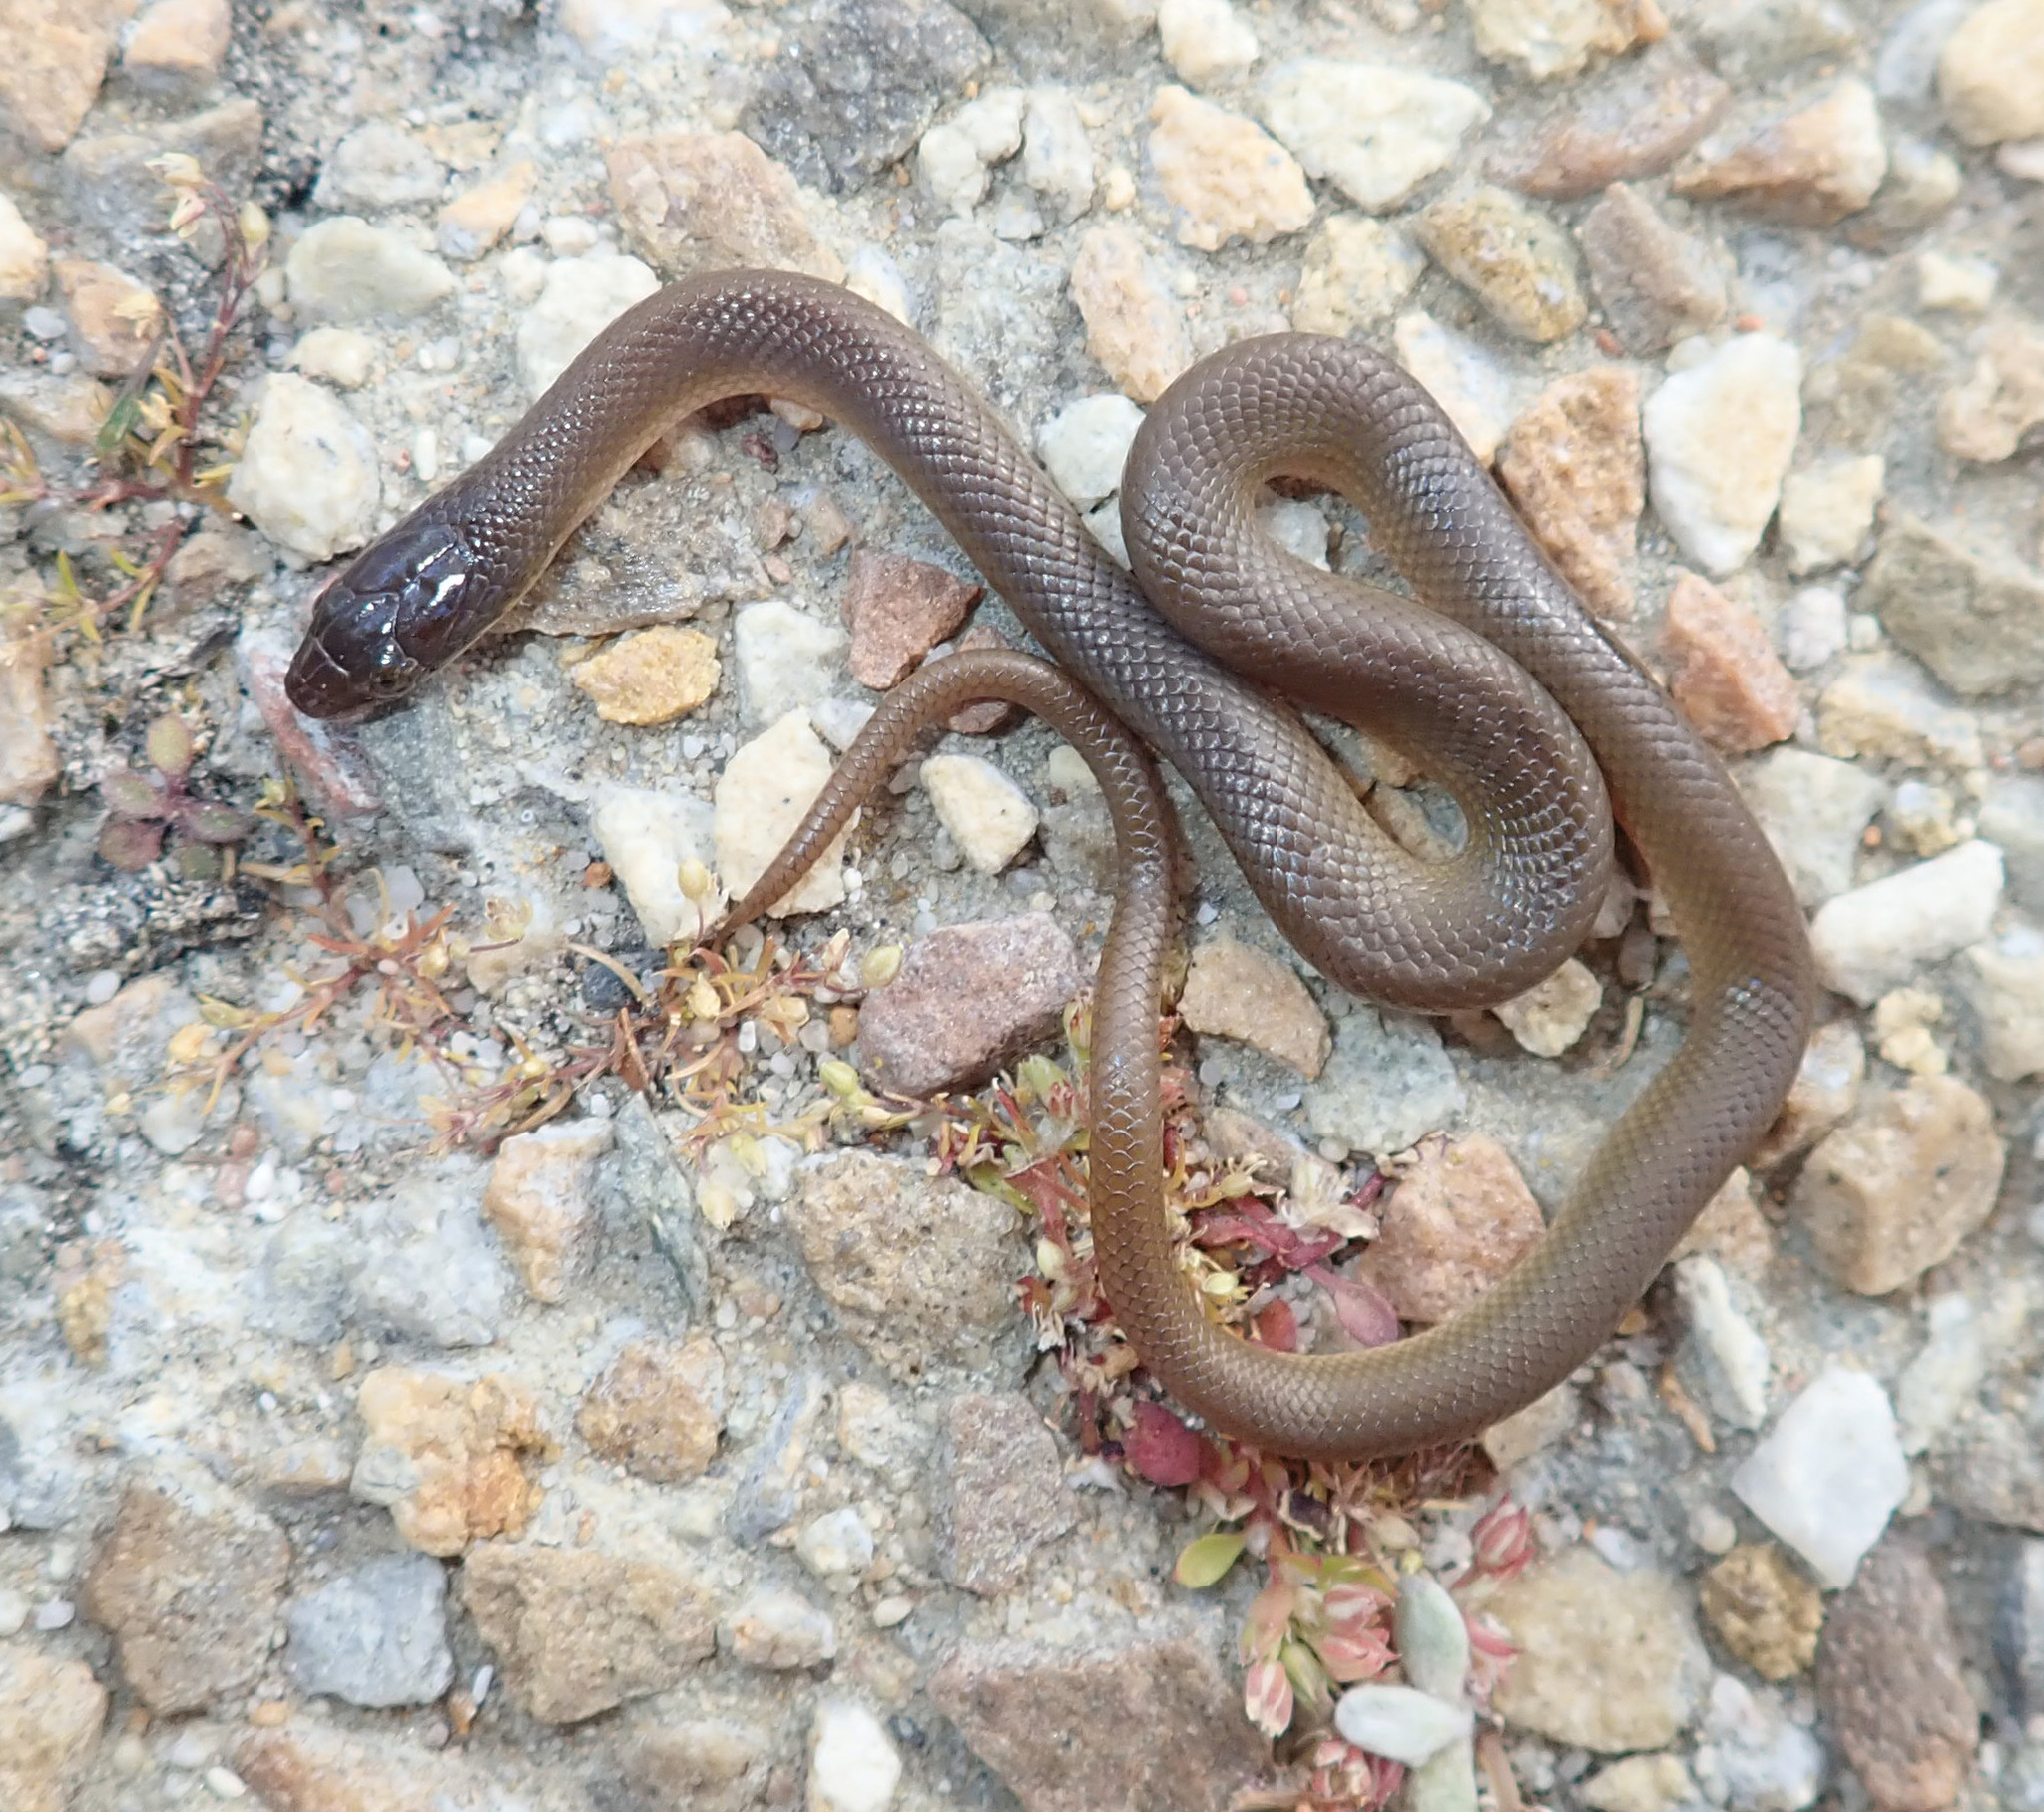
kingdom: Animalia
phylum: Chordata
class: Squamata
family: Lamprophiidae
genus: Lycodonomorphus
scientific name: Lycodonomorphus rufulus
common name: Brown water snake
